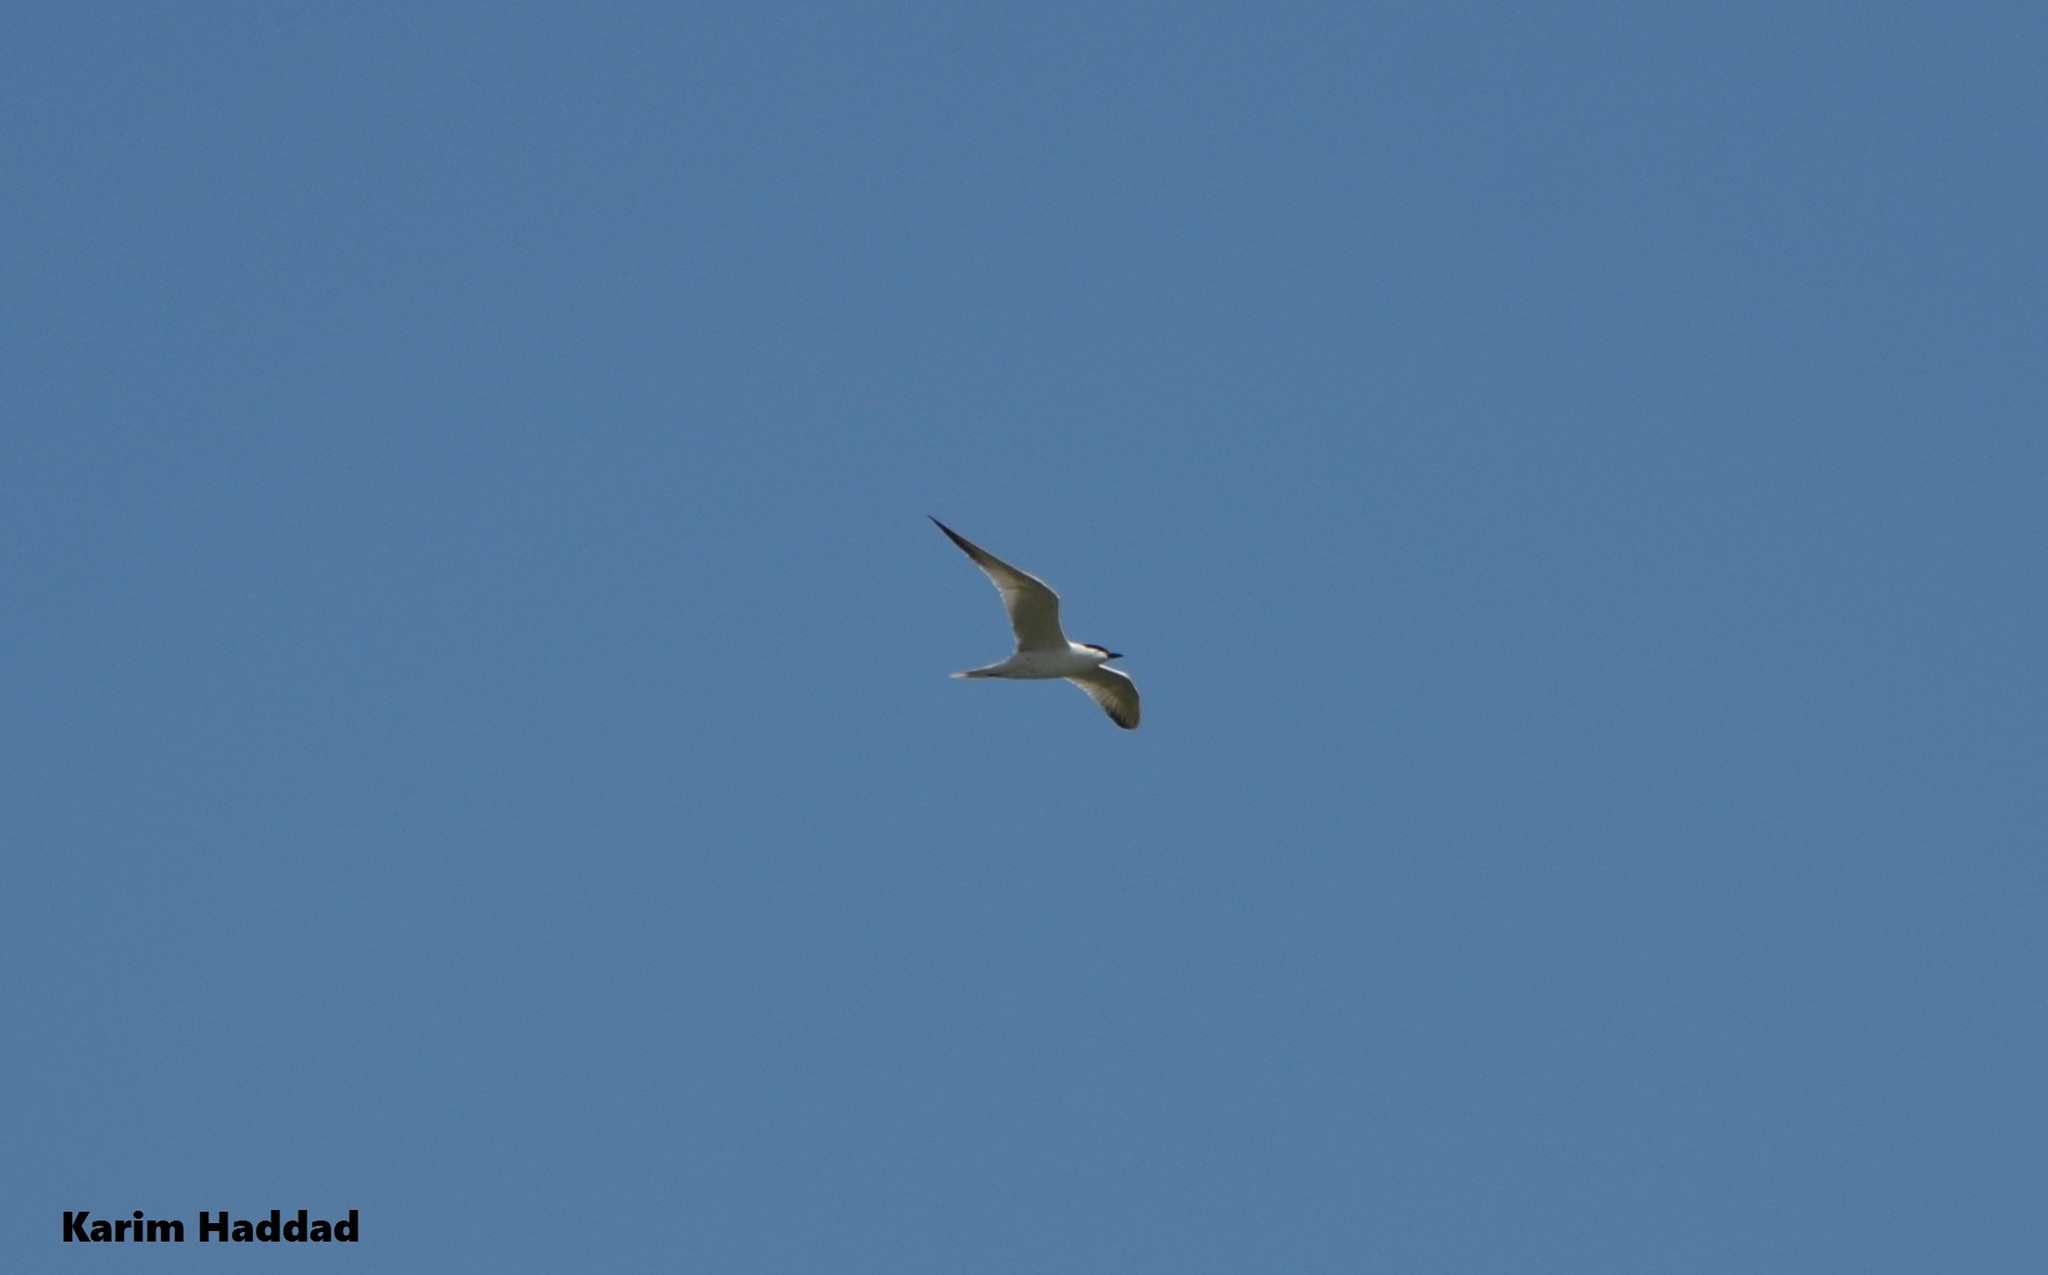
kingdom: Animalia
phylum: Chordata
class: Aves
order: Charadriiformes
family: Laridae
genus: Gelochelidon
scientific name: Gelochelidon nilotica
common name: Gull-billed tern
